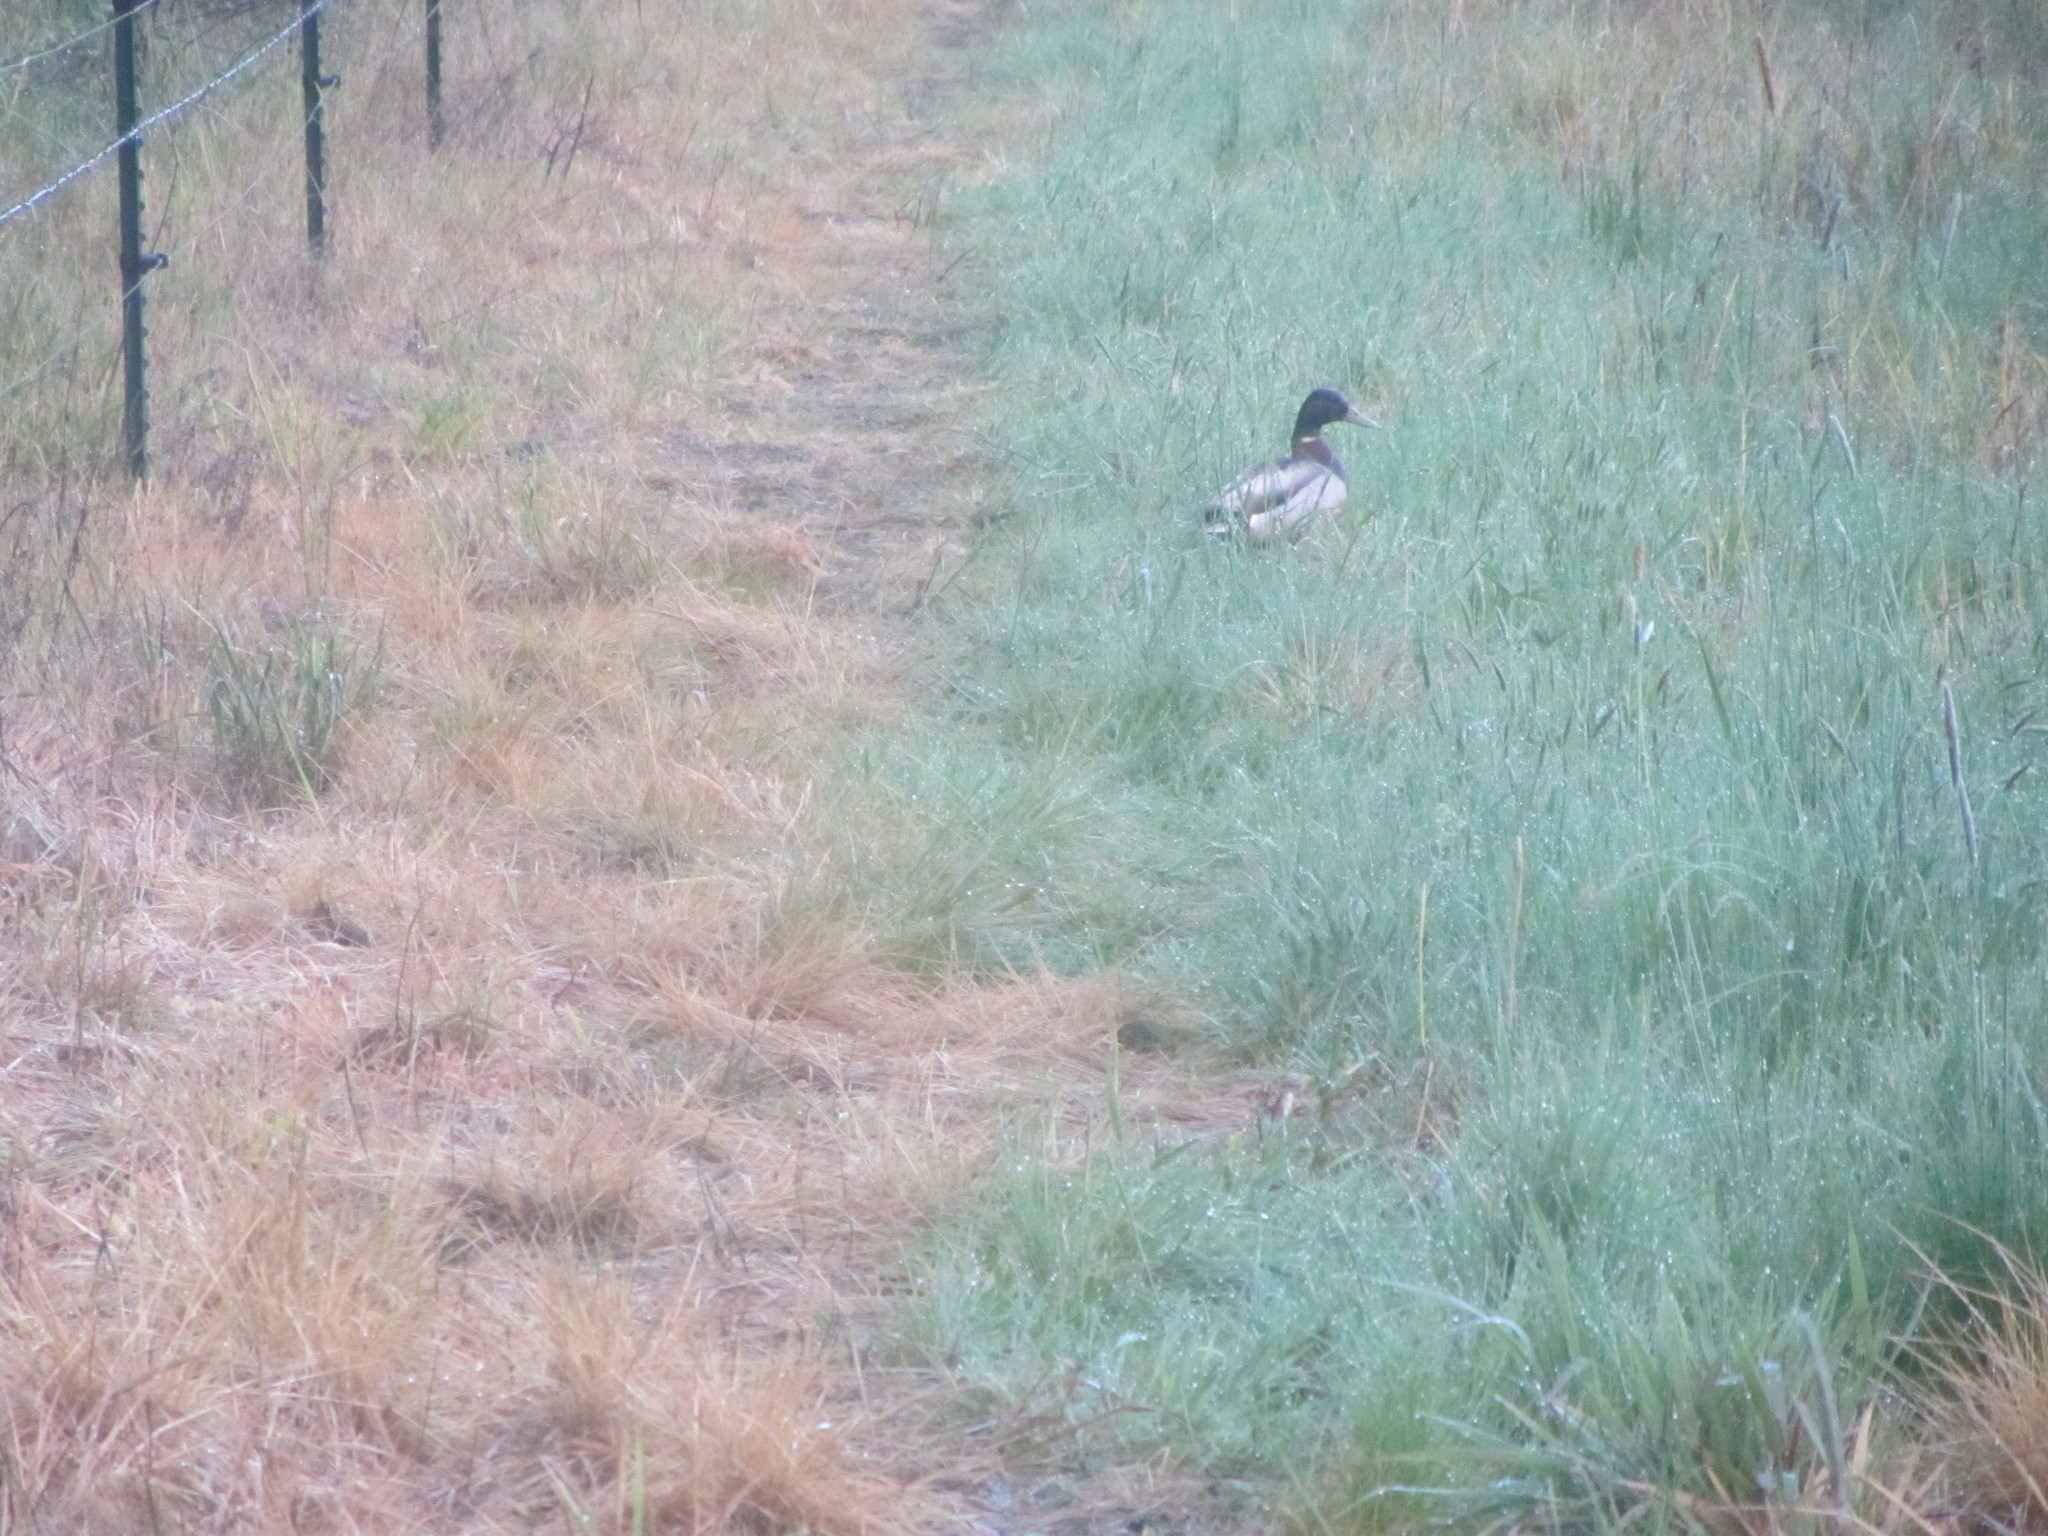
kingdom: Animalia
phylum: Chordata
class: Aves
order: Anseriformes
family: Anatidae
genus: Anas
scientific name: Anas platyrhynchos
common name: Mallard
